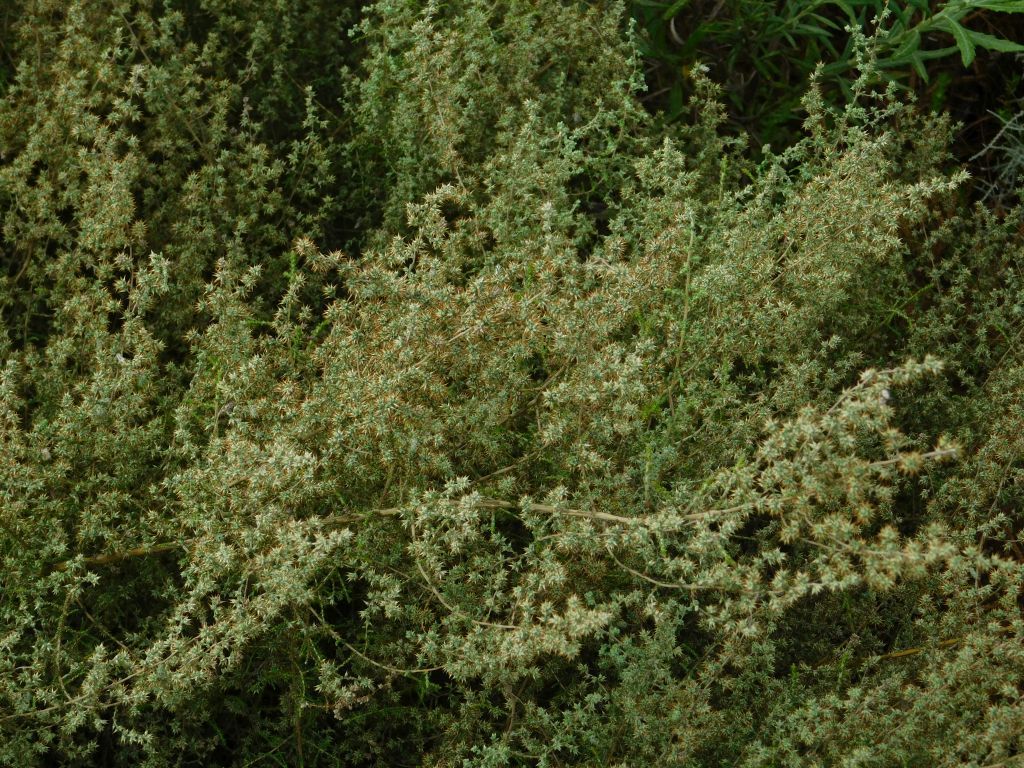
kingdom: Plantae
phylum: Tracheophyta
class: Magnoliopsida
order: Asterales
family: Asteraceae
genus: Seriphium
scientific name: Seriphium plumosum
